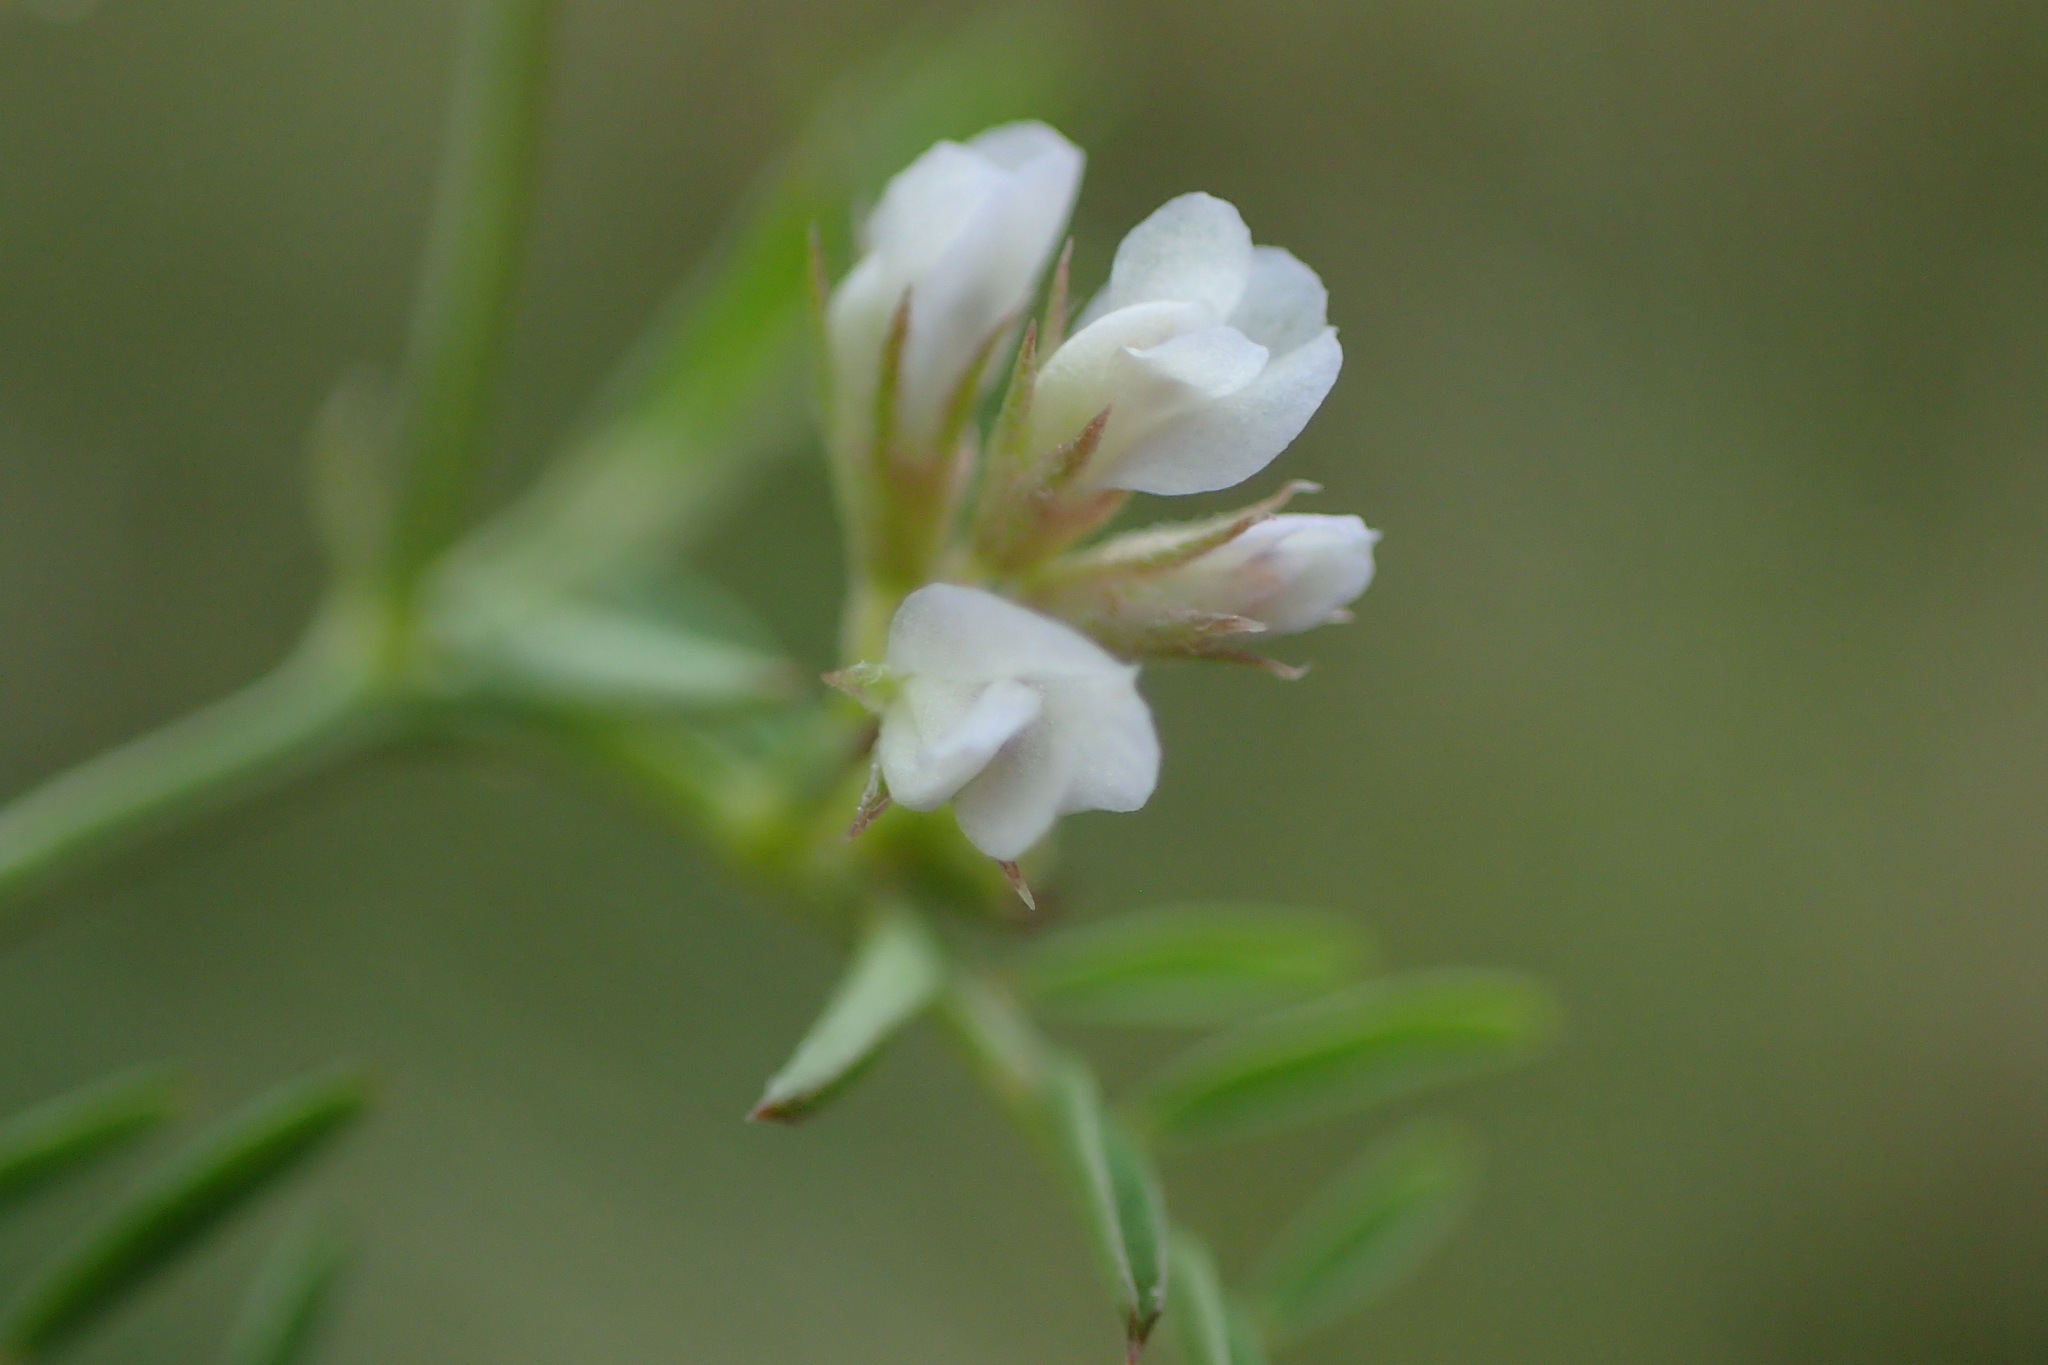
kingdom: Plantae
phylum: Tracheophyta
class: Magnoliopsida
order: Fabales
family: Fabaceae
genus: Vicia
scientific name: Vicia hirsuta
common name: Tiny vetch
